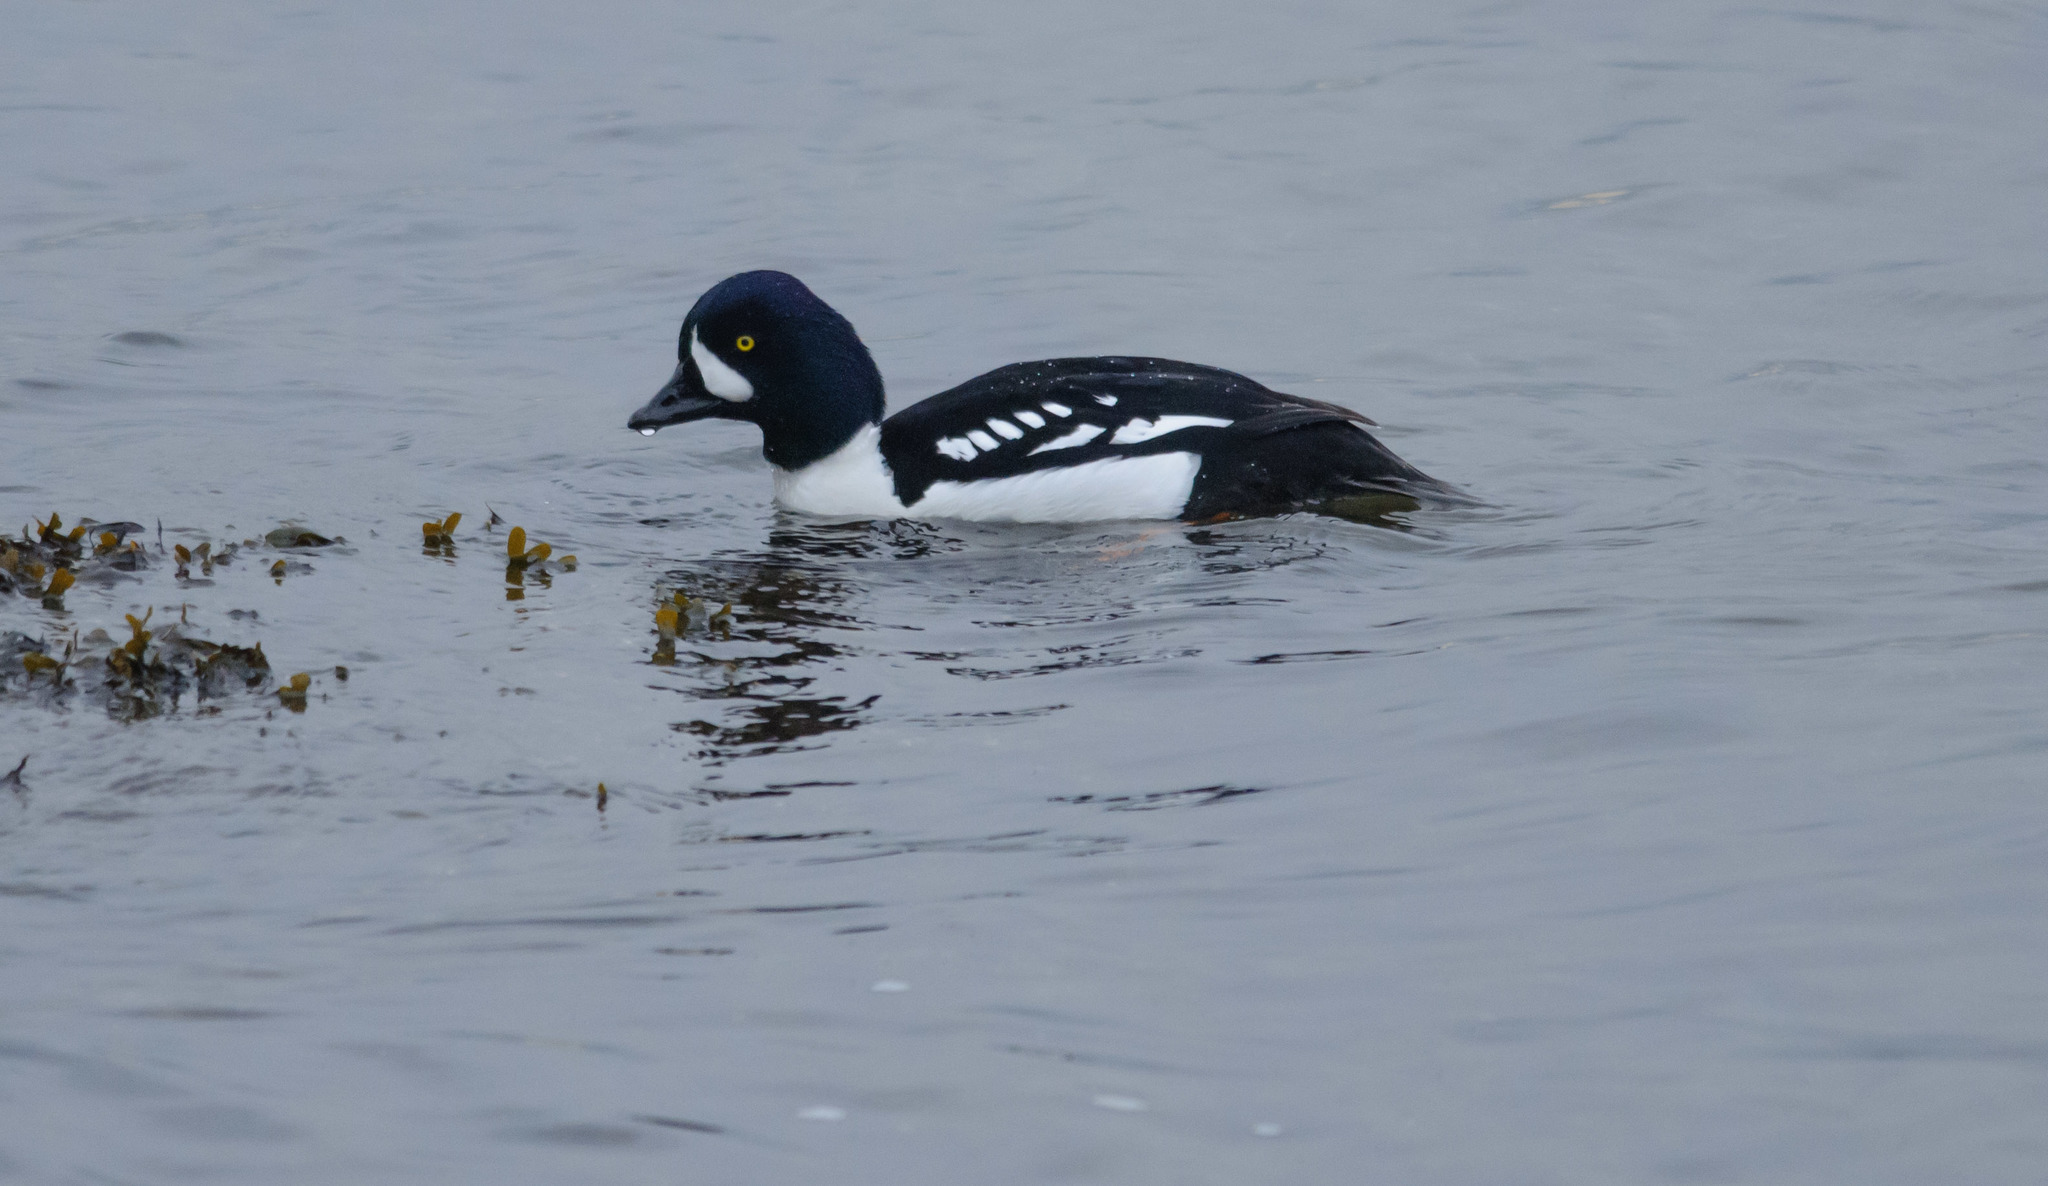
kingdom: Animalia
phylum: Chordata
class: Aves
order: Anseriformes
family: Anatidae
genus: Bucephala
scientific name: Bucephala islandica
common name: Barrow's goldeneye
